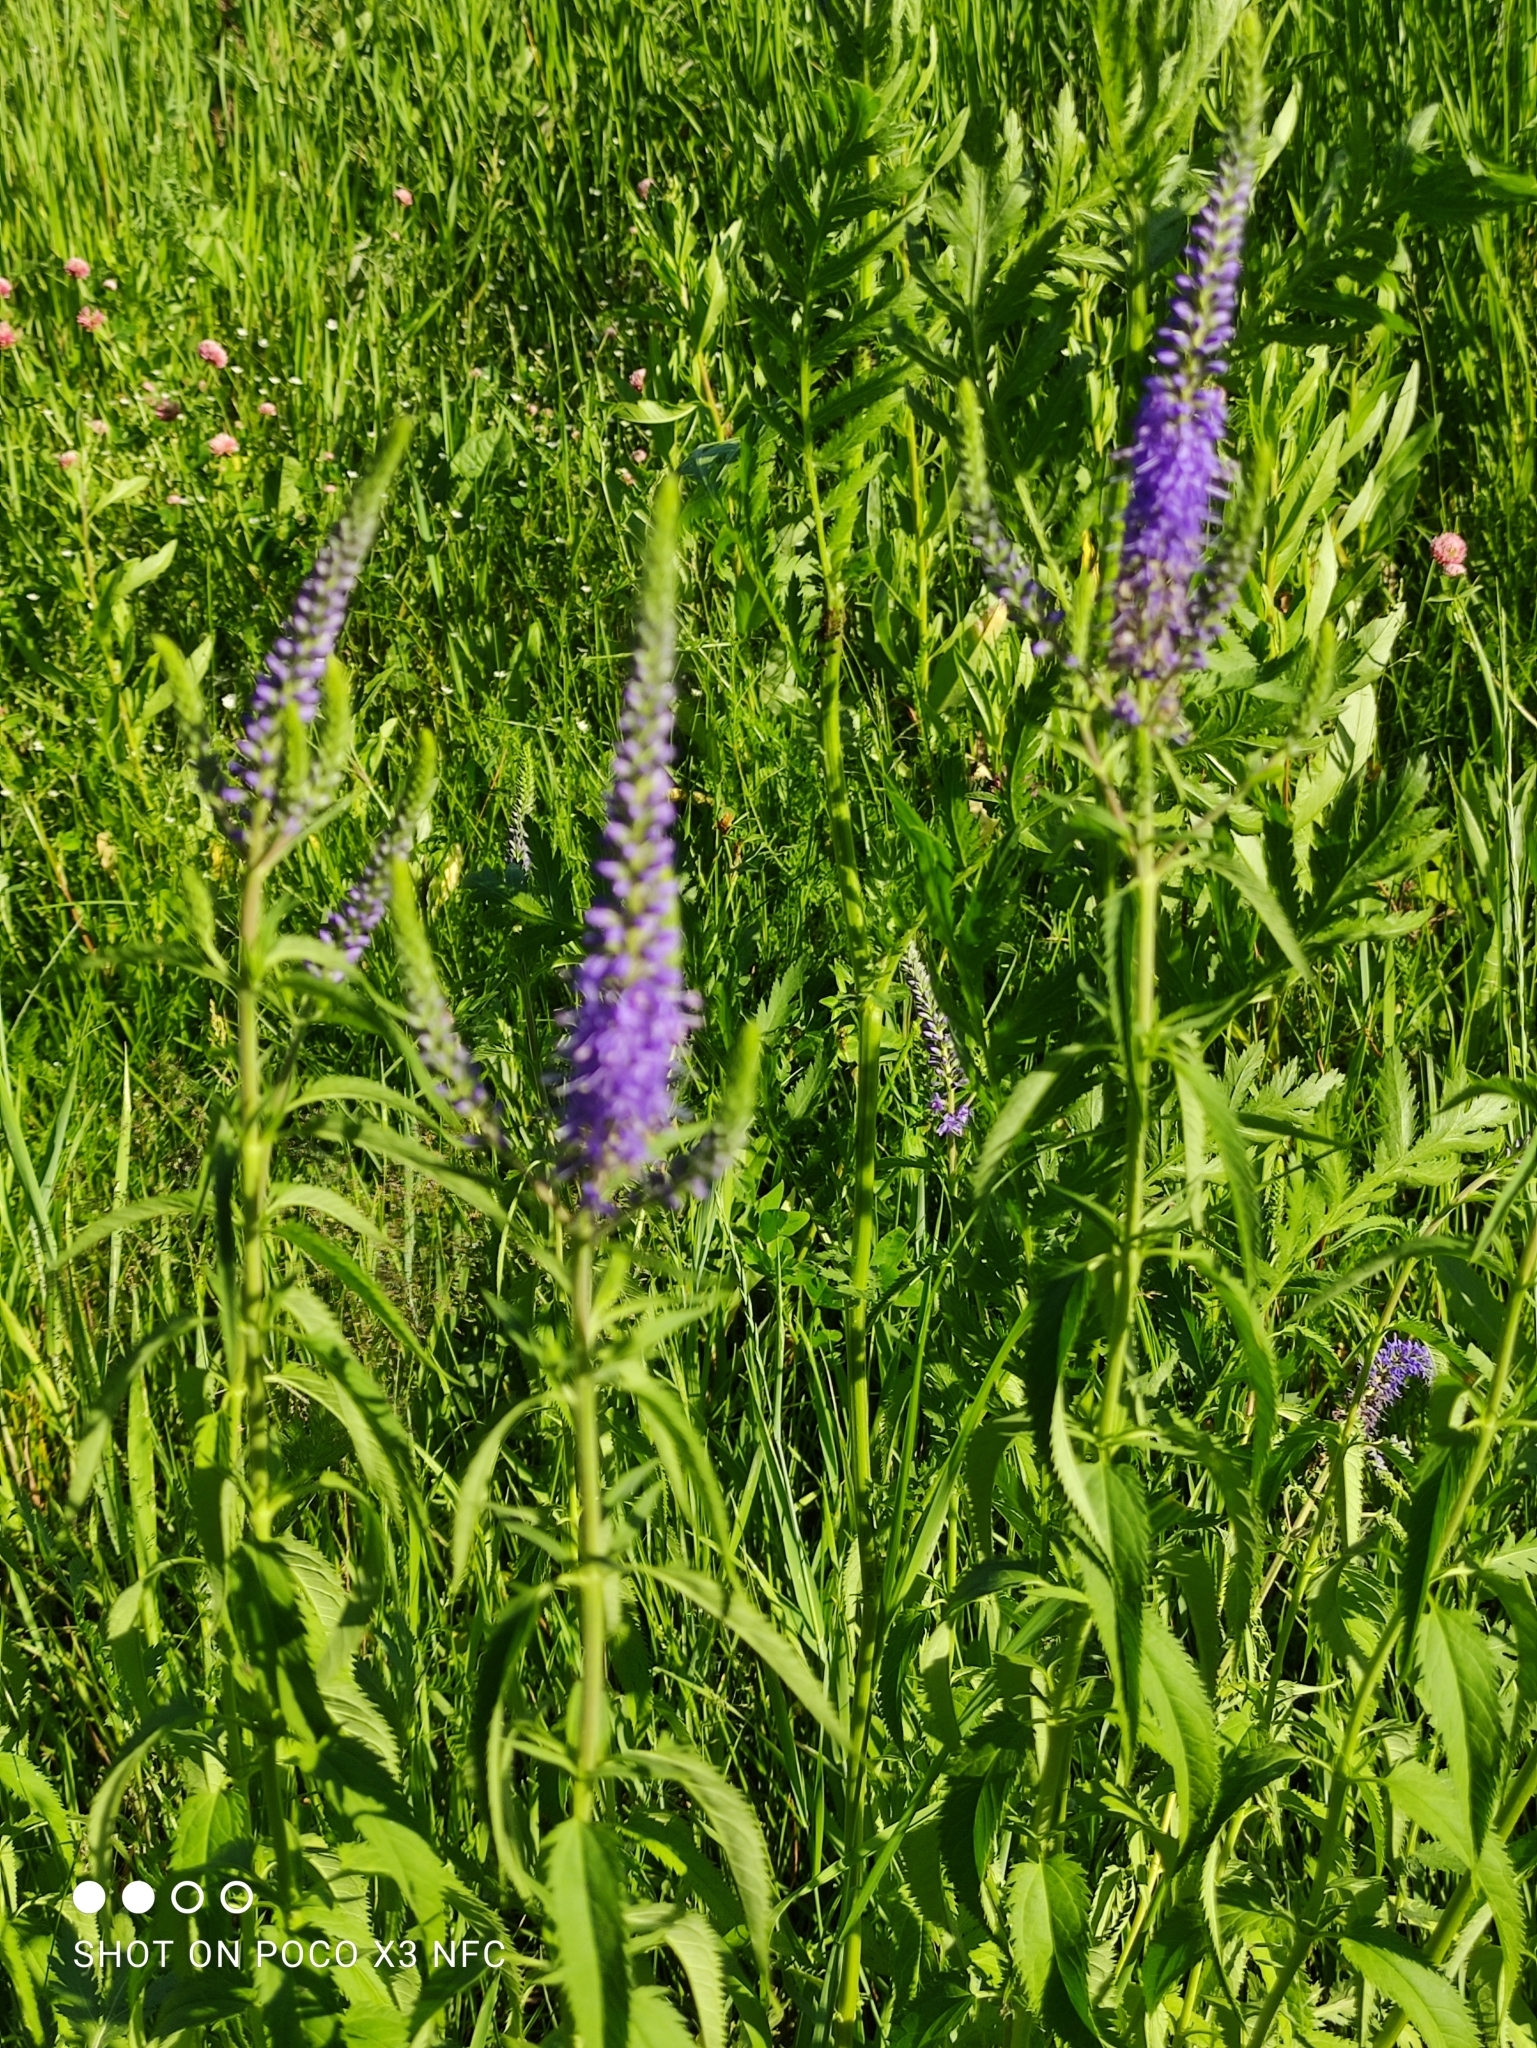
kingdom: Plantae
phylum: Tracheophyta
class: Magnoliopsida
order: Lamiales
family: Plantaginaceae
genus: Veronica
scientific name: Veronica longifolia
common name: Garden speedwell
